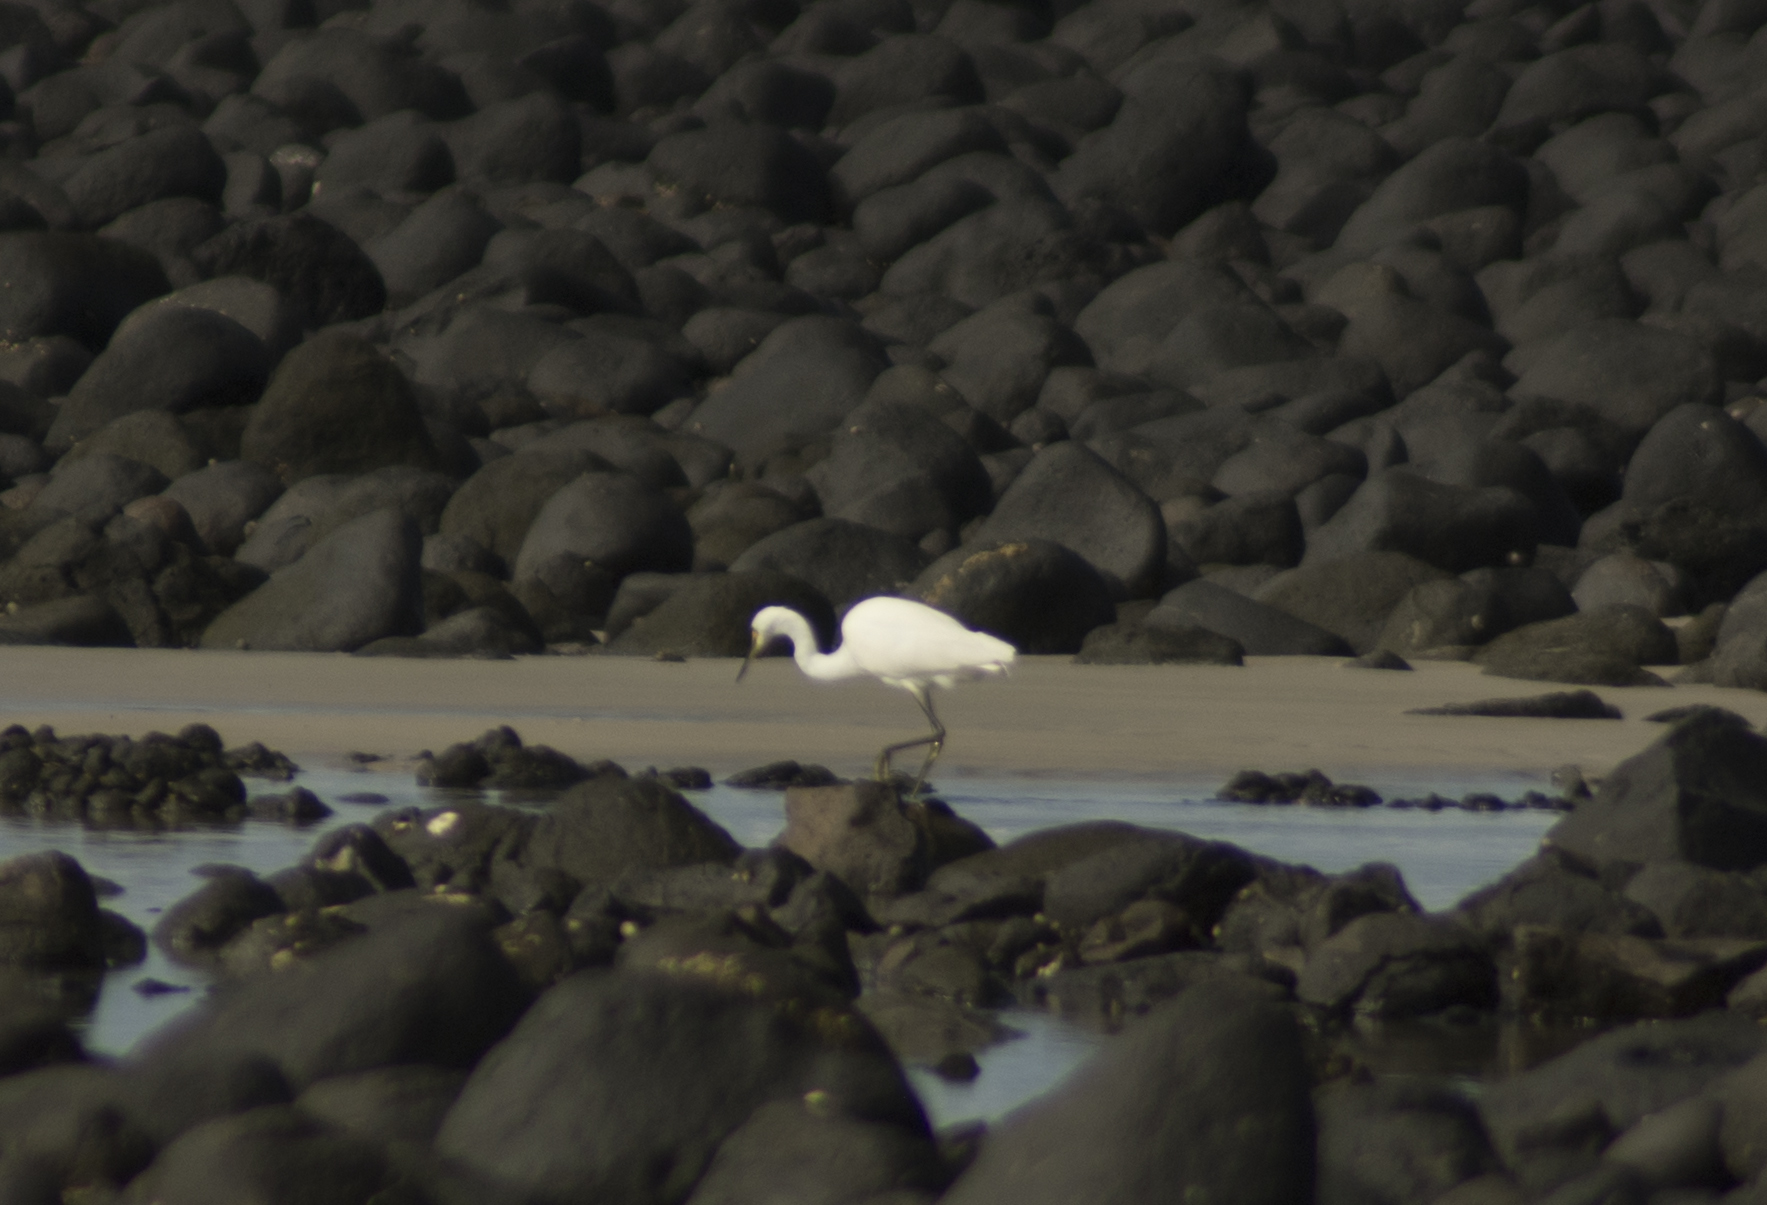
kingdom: Animalia
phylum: Chordata
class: Aves
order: Pelecaniformes
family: Ardeidae
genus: Egretta
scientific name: Egretta sacra
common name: Pacific reef heron
